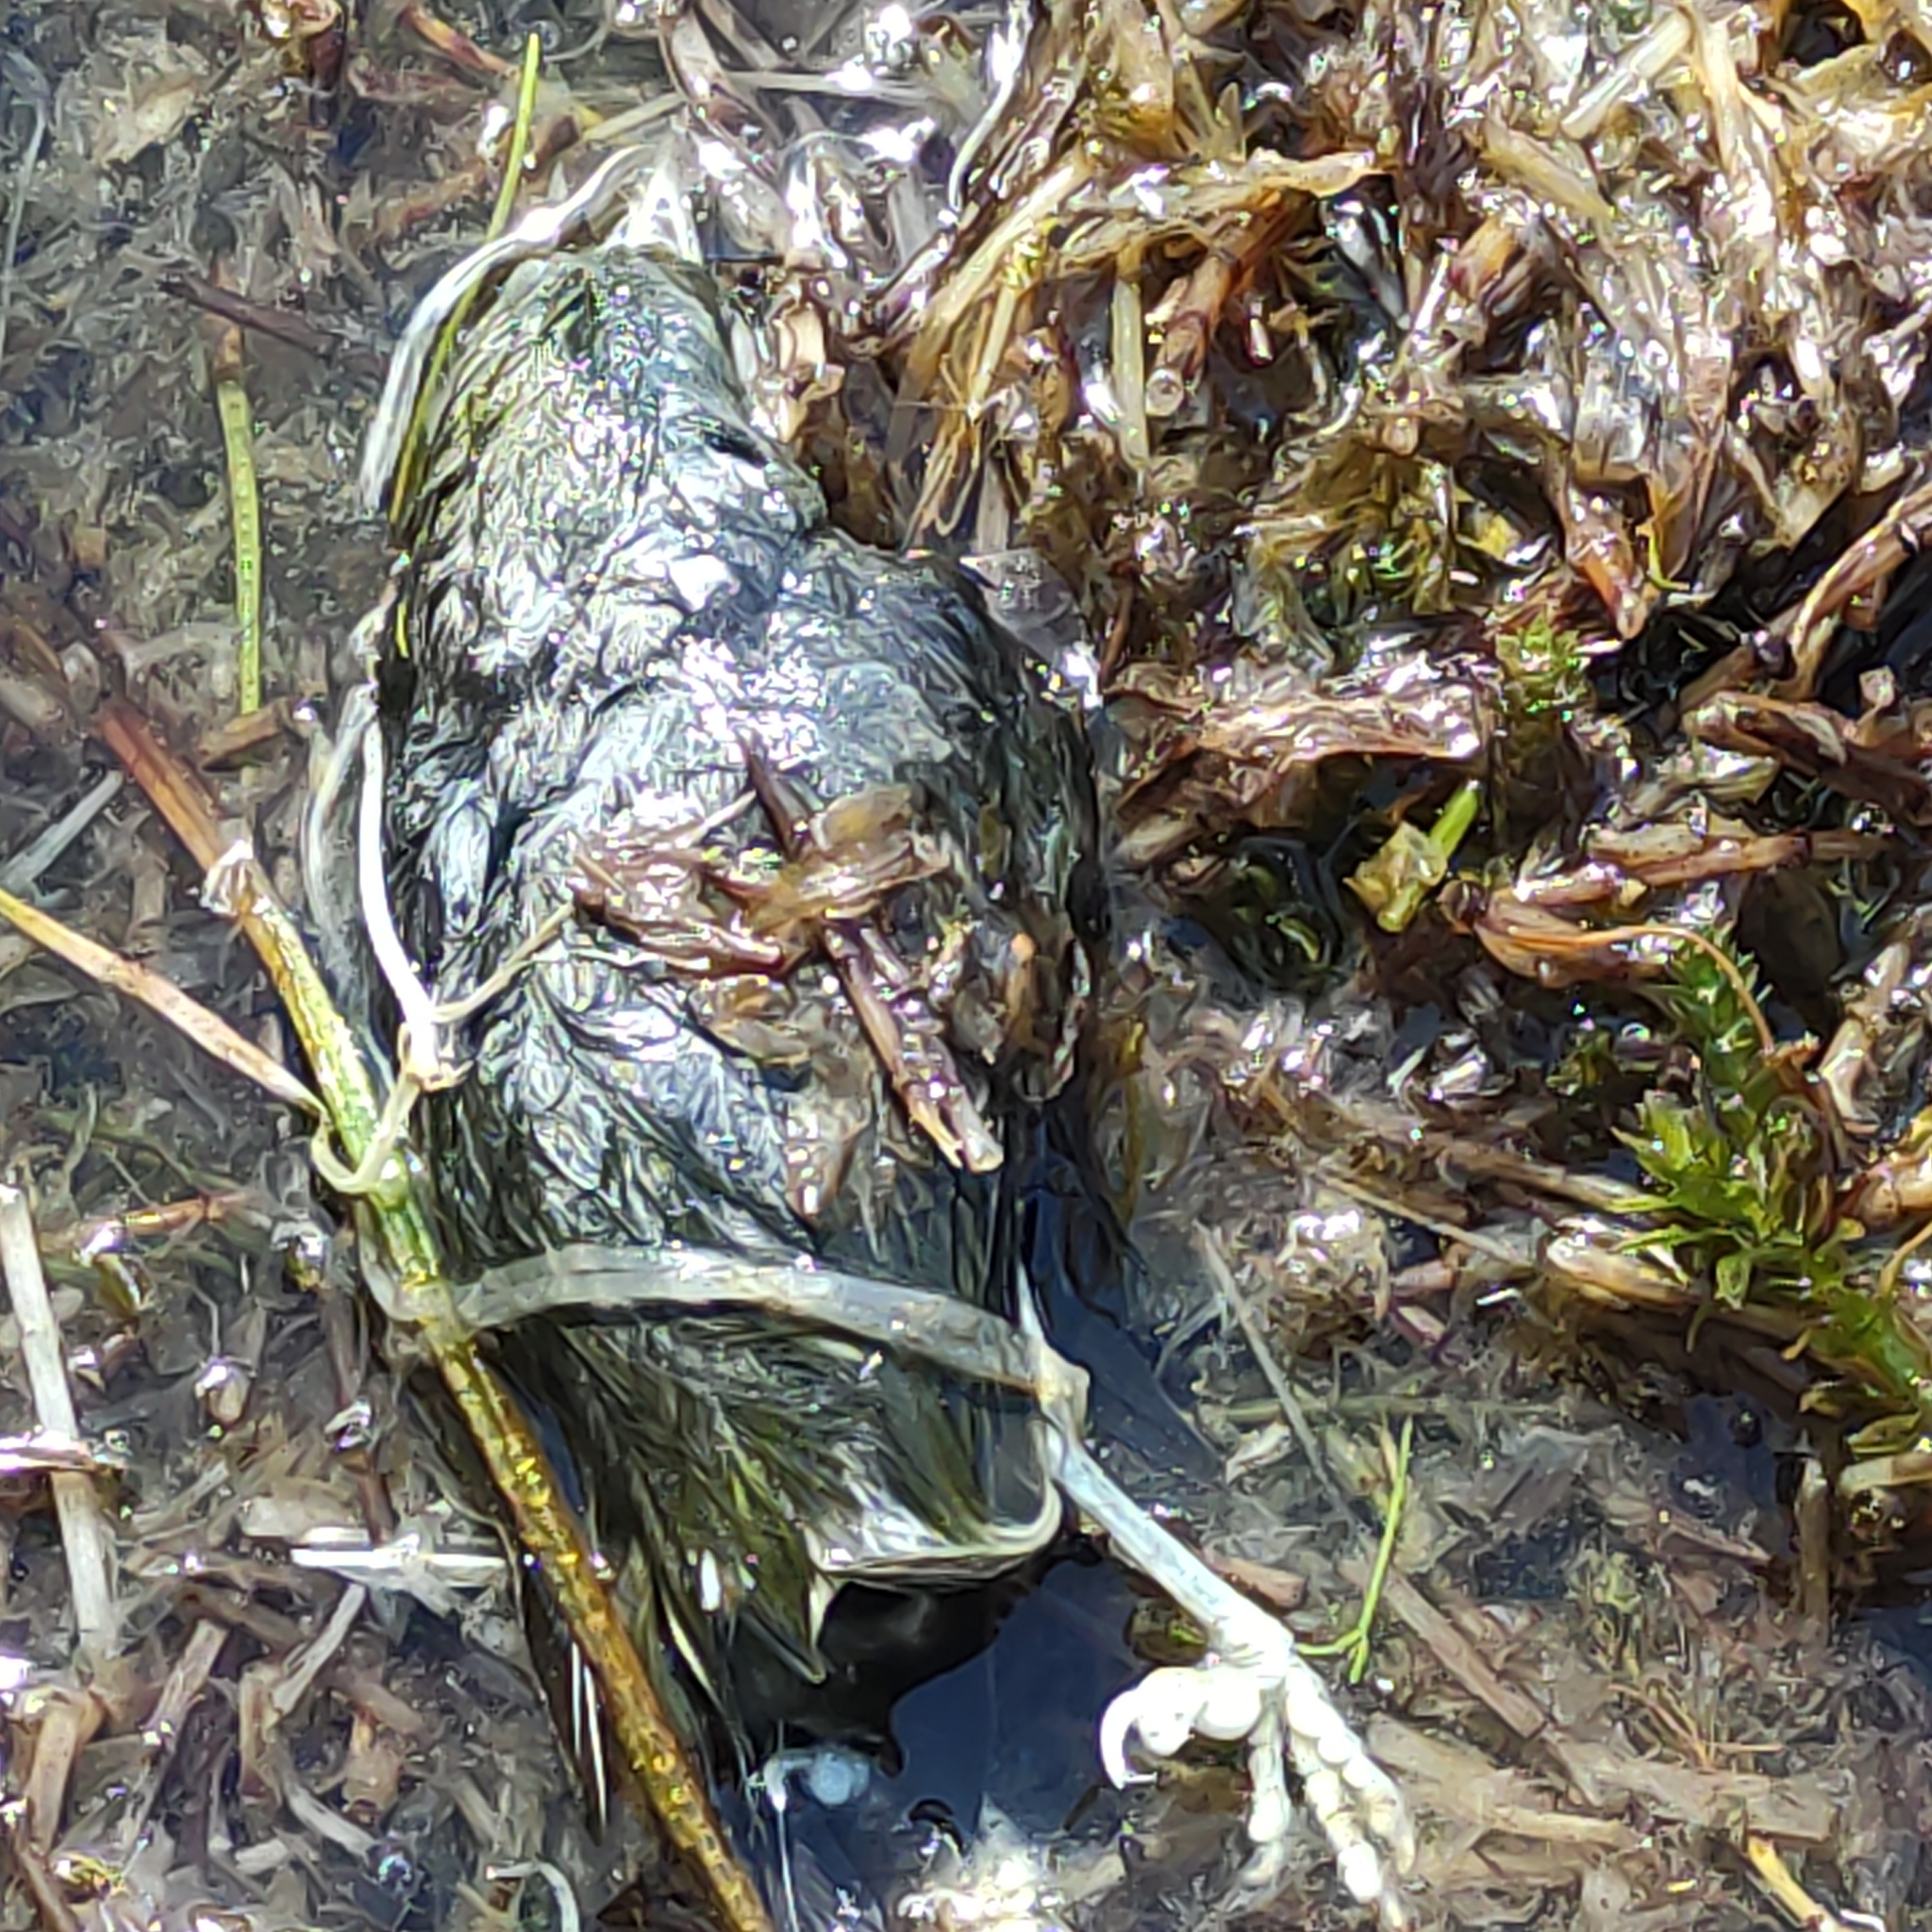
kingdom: Animalia
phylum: Chordata
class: Aves
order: Passeriformes
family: Zosteropidae
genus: Zosterops
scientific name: Zosterops lateralis
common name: Silvereye
